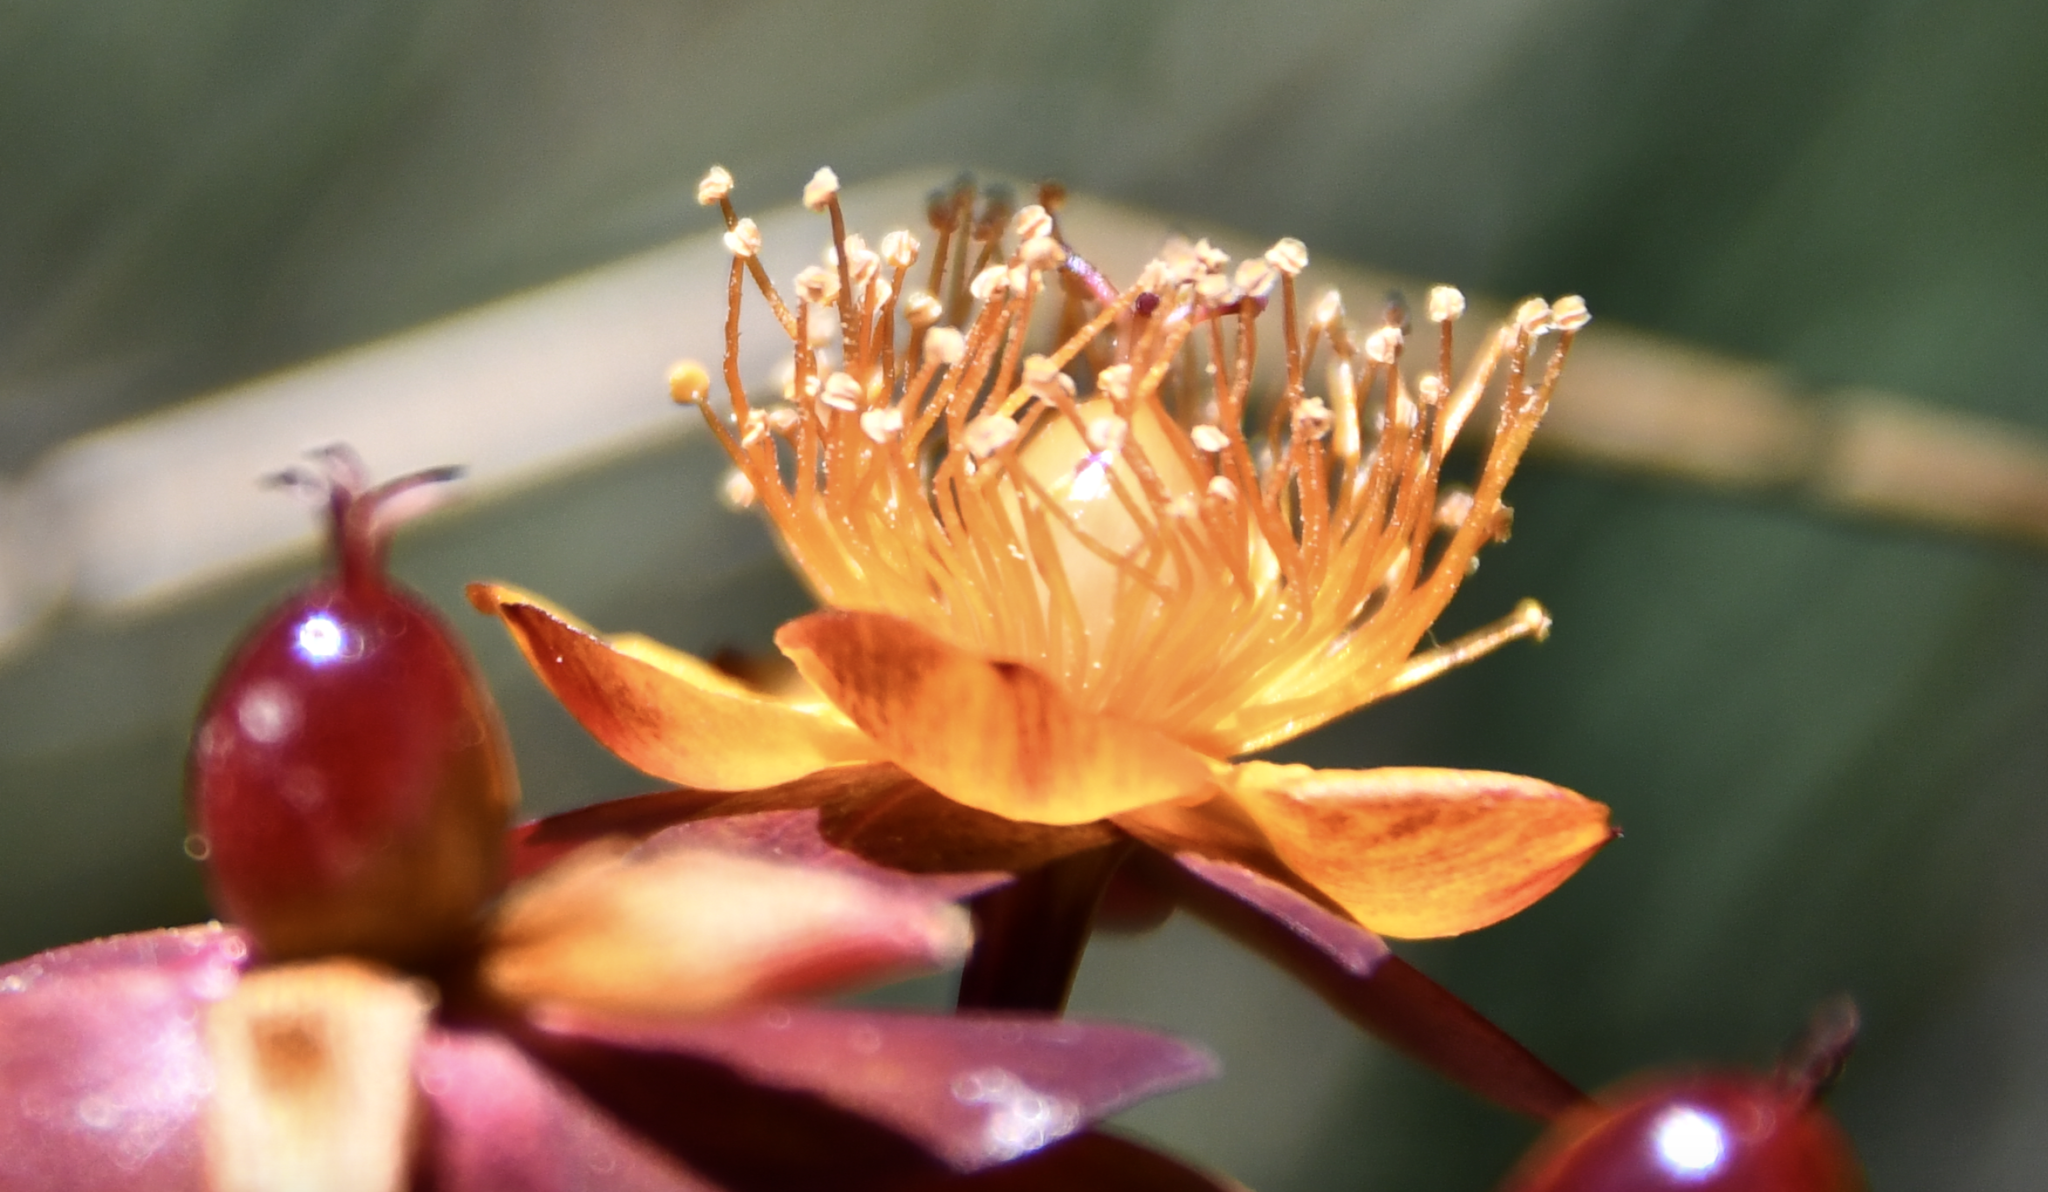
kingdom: Plantae
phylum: Tracheophyta
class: Magnoliopsida
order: Malpighiales
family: Hypericaceae
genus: Hypericum
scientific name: Hypericum androsaemum
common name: Sweet-amber
